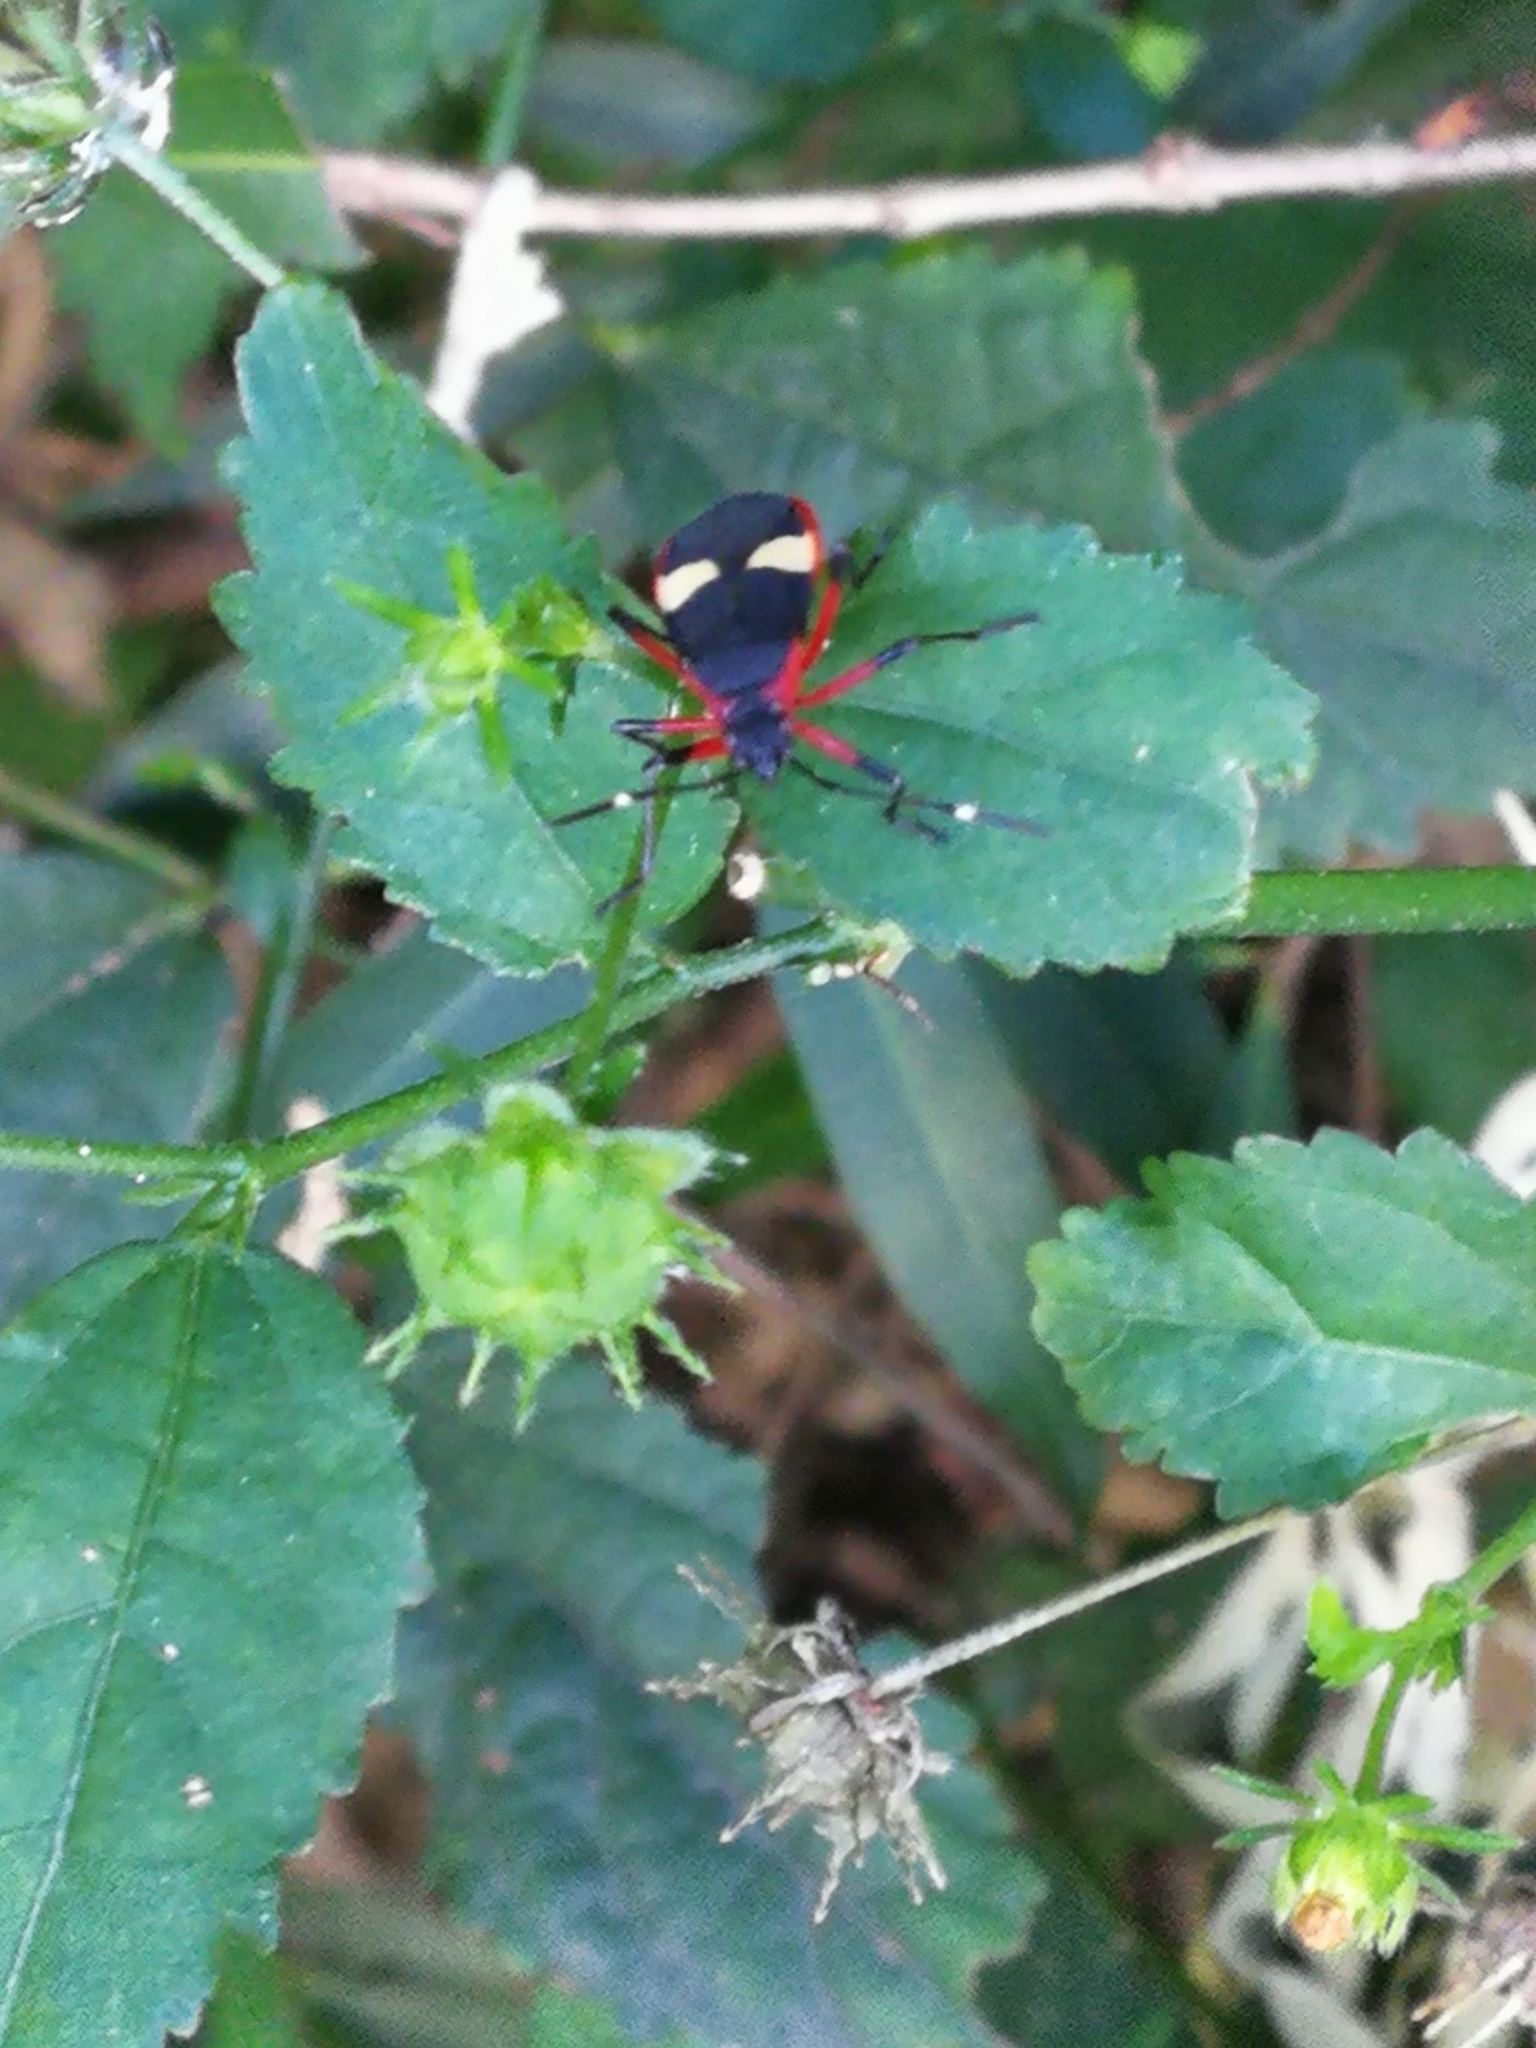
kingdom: Animalia
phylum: Arthropoda
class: Insecta
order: Hemiptera
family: Pyrrhocoridae
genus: Dysdercus
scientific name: Dysdercus albofasciatus
